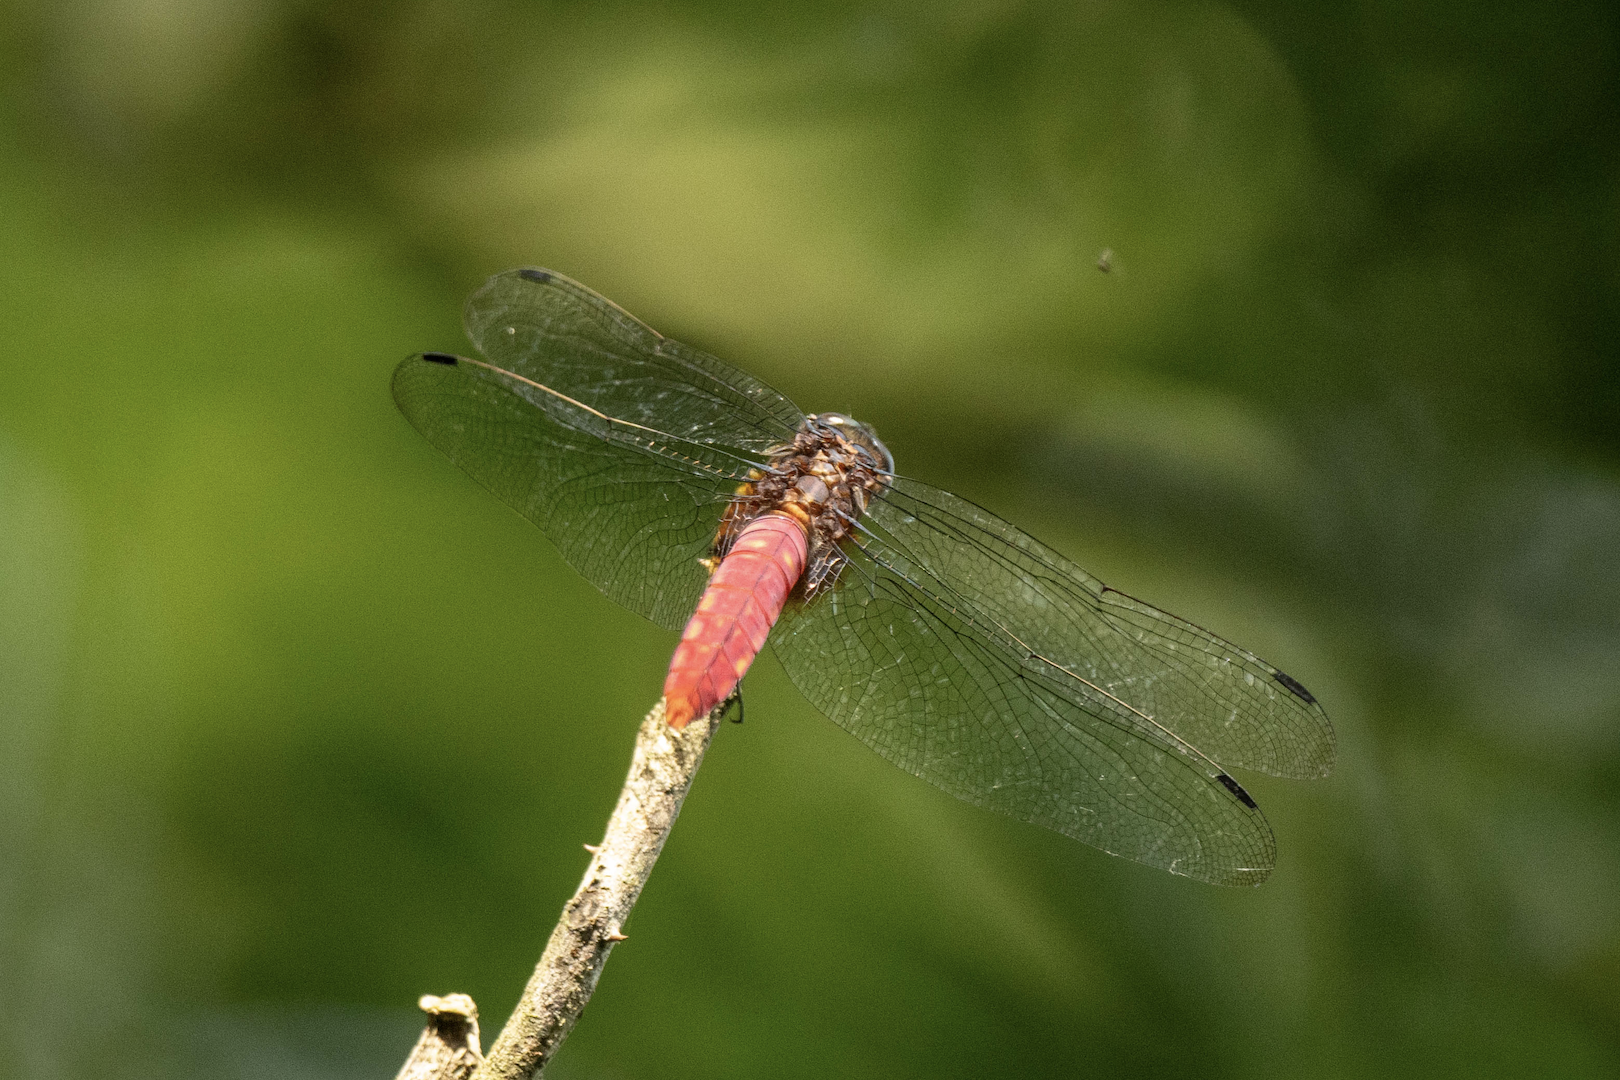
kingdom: Animalia
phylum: Arthropoda
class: Insecta
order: Odonata
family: Libellulidae
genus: Orthetrum
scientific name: Orthetrum pruinosum
